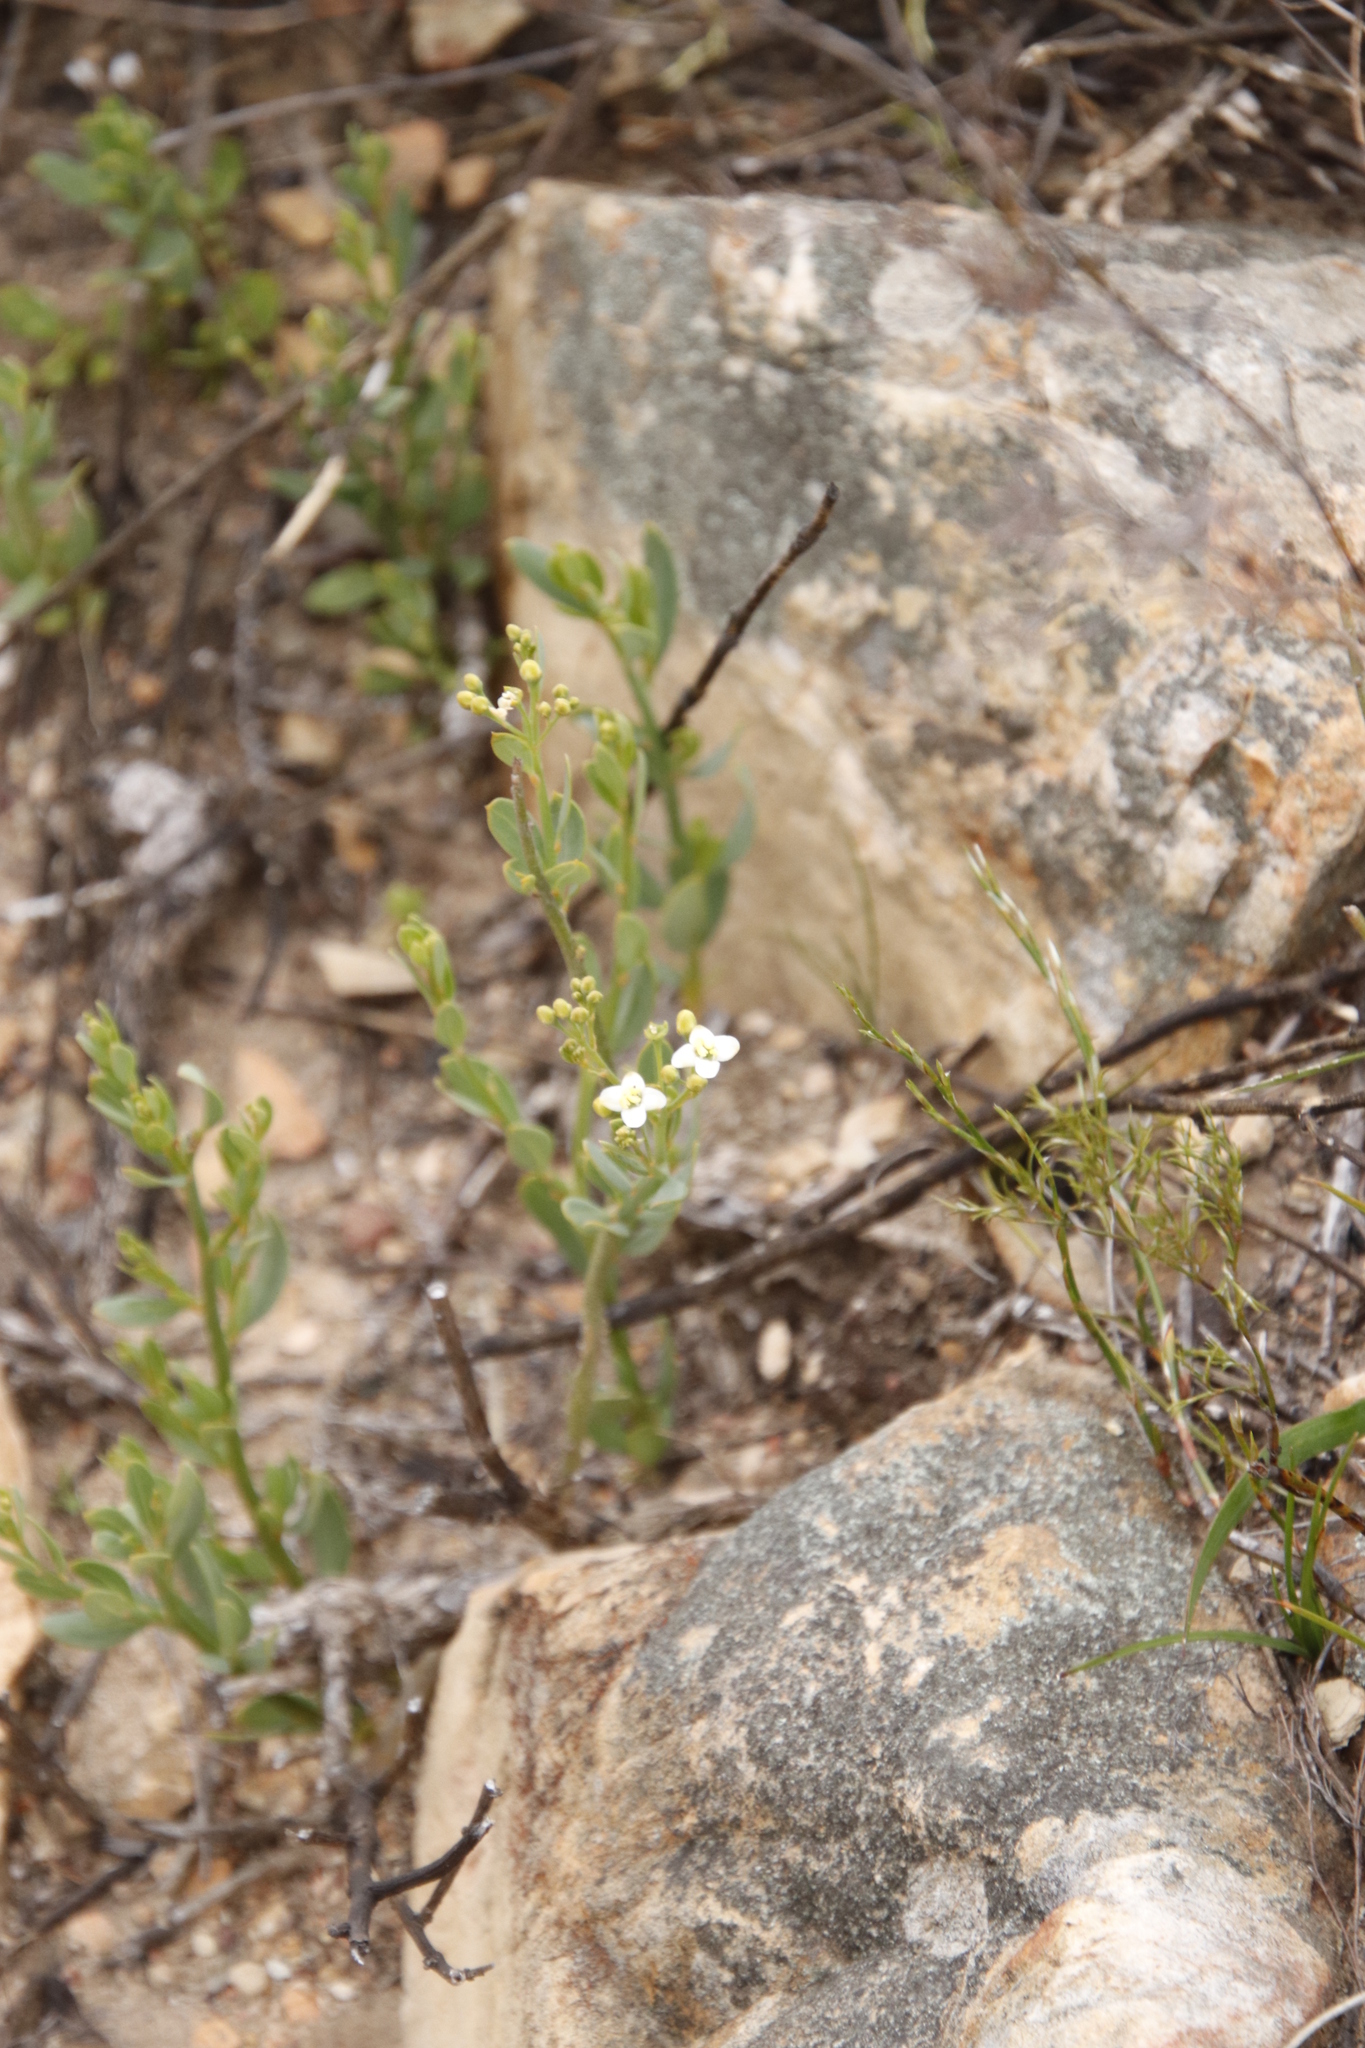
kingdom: Plantae
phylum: Tracheophyta
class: Magnoliopsida
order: Solanales
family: Montiniaceae
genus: Montinia
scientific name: Montinia caryophyllacea
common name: Wild clove-bush
